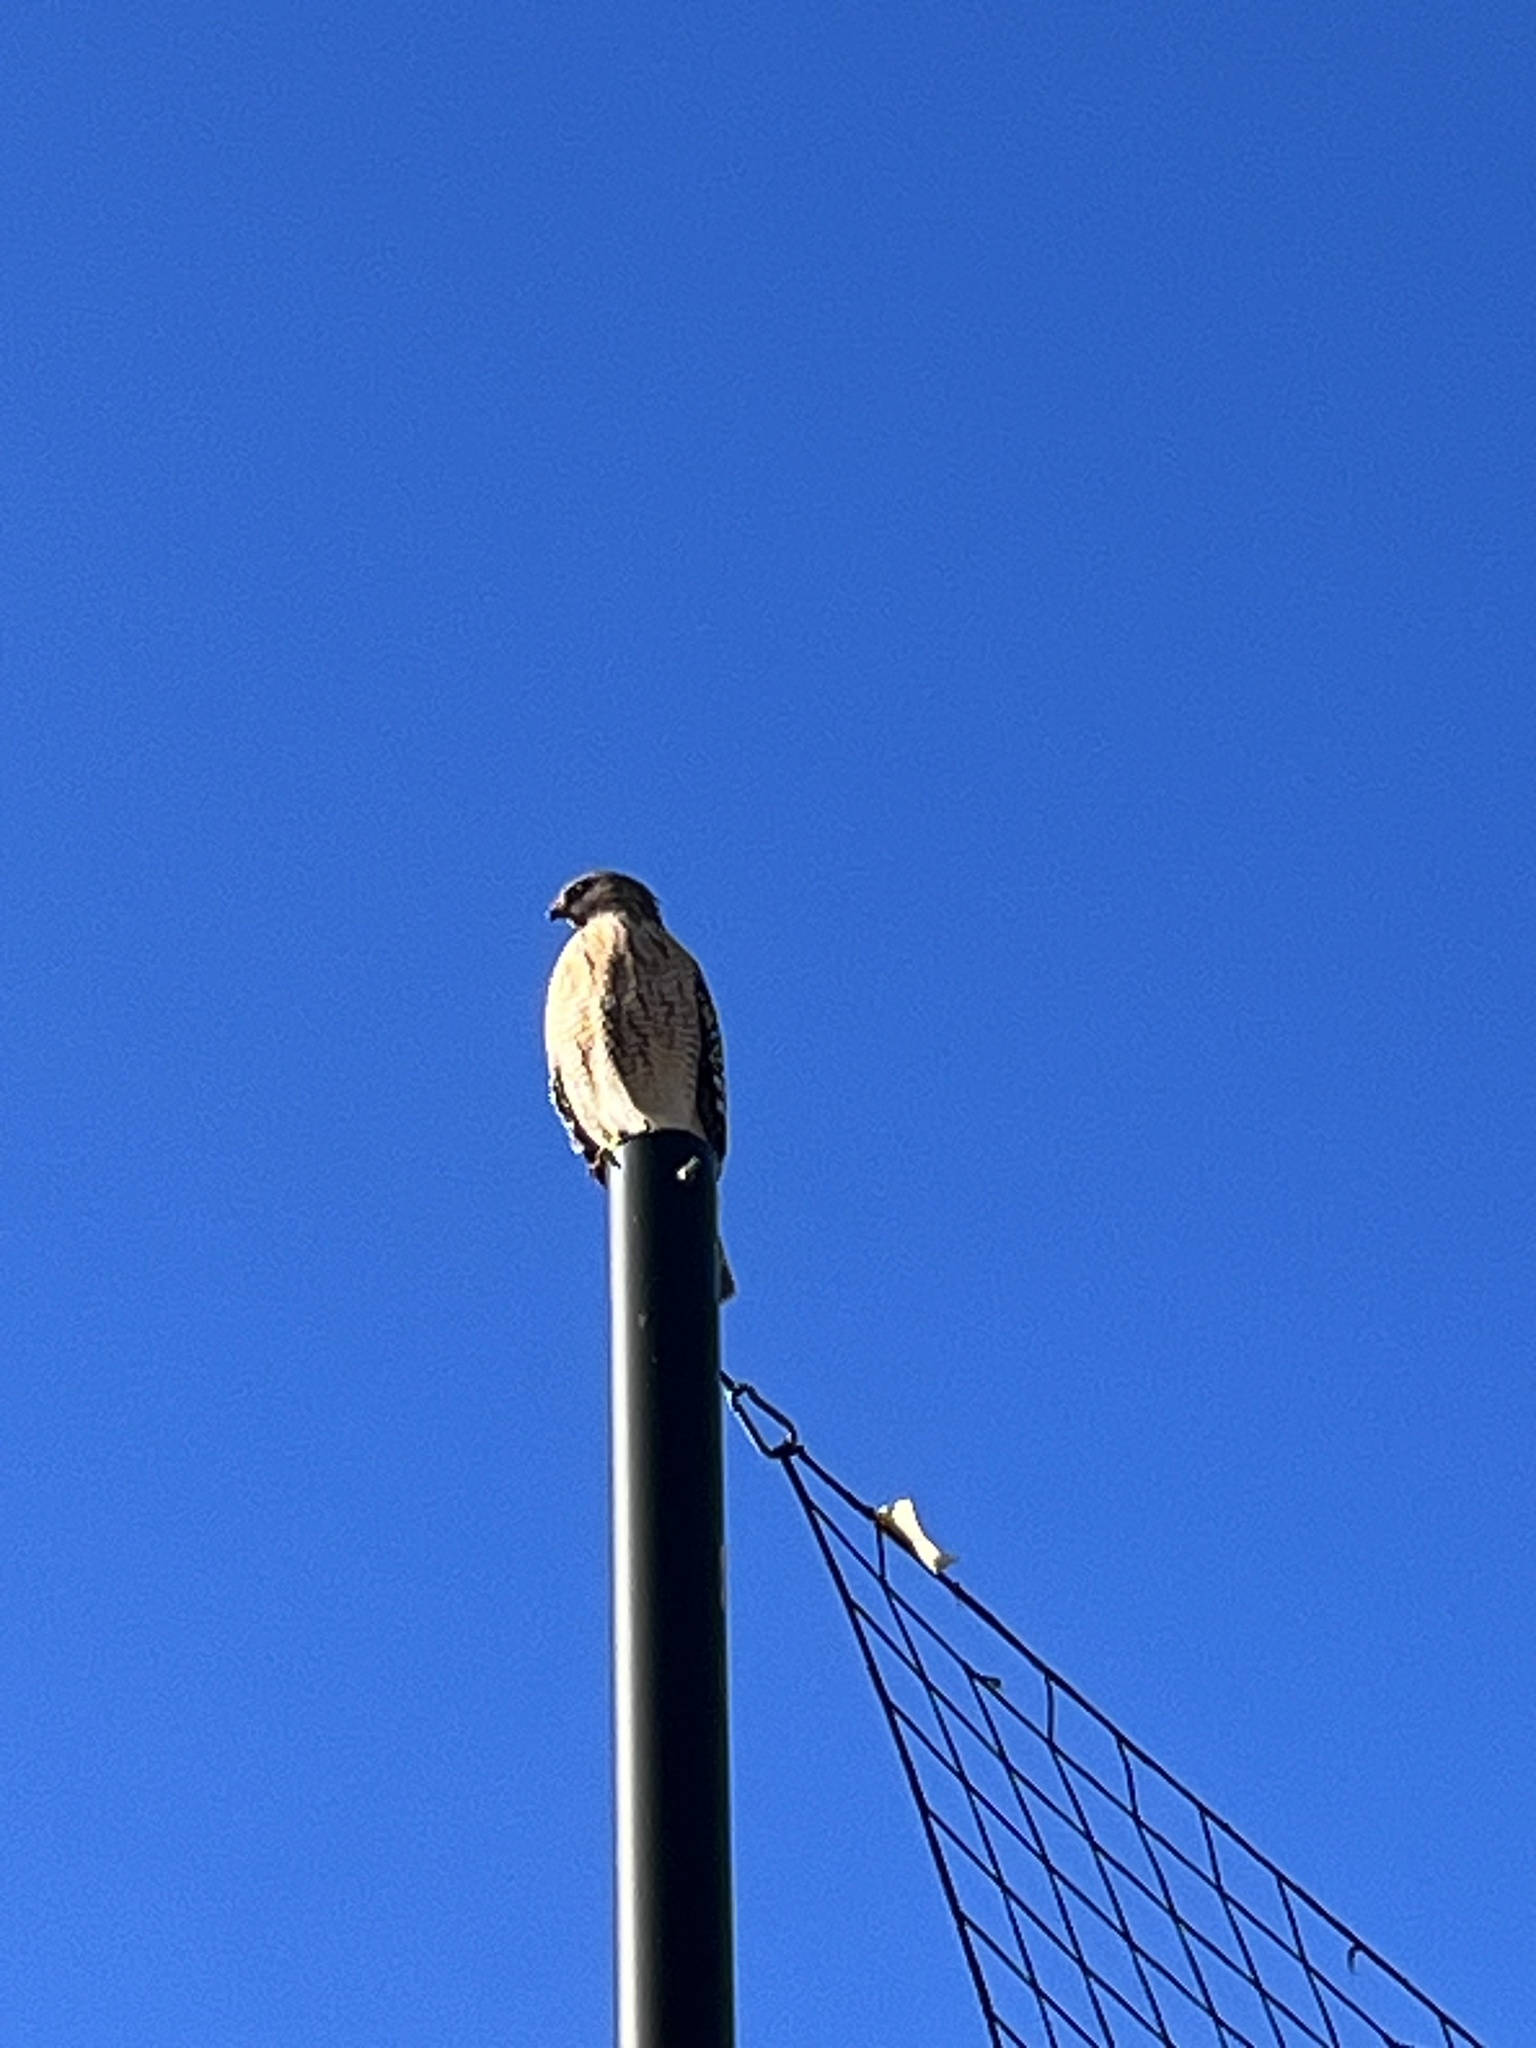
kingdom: Animalia
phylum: Chordata
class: Aves
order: Accipitriformes
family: Accipitridae
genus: Buteo
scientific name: Buteo lineatus
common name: Red-shouldered hawk
